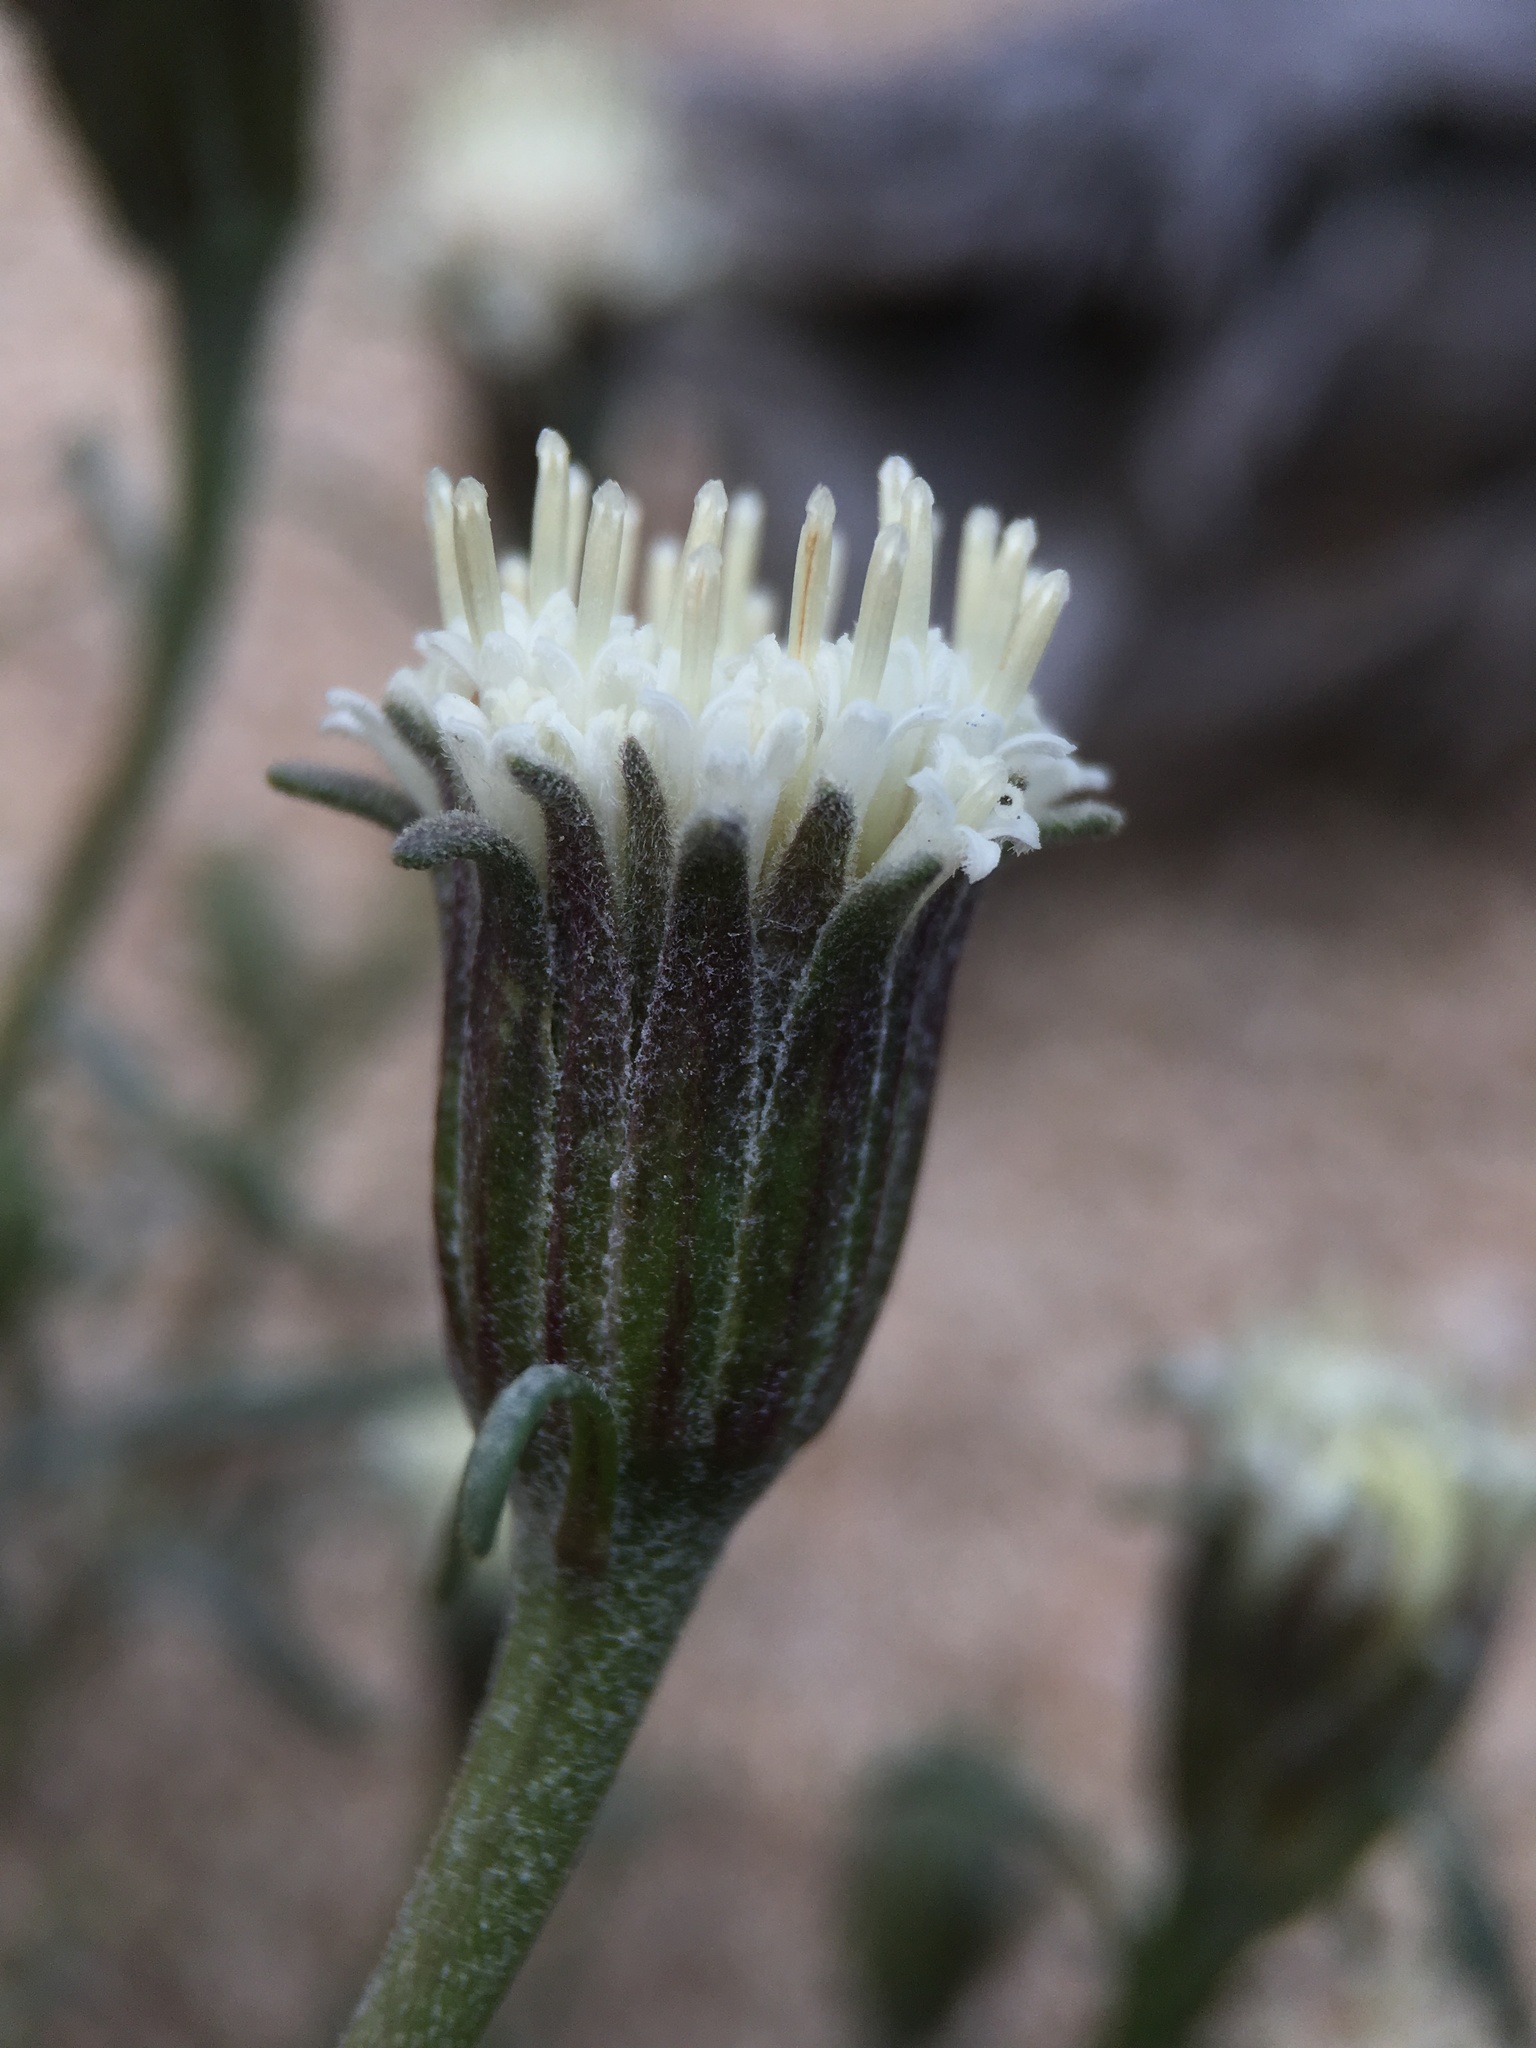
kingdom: Plantae
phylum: Tracheophyta
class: Magnoliopsida
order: Asterales
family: Asteraceae
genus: Chaenactis
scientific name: Chaenactis xantiana
